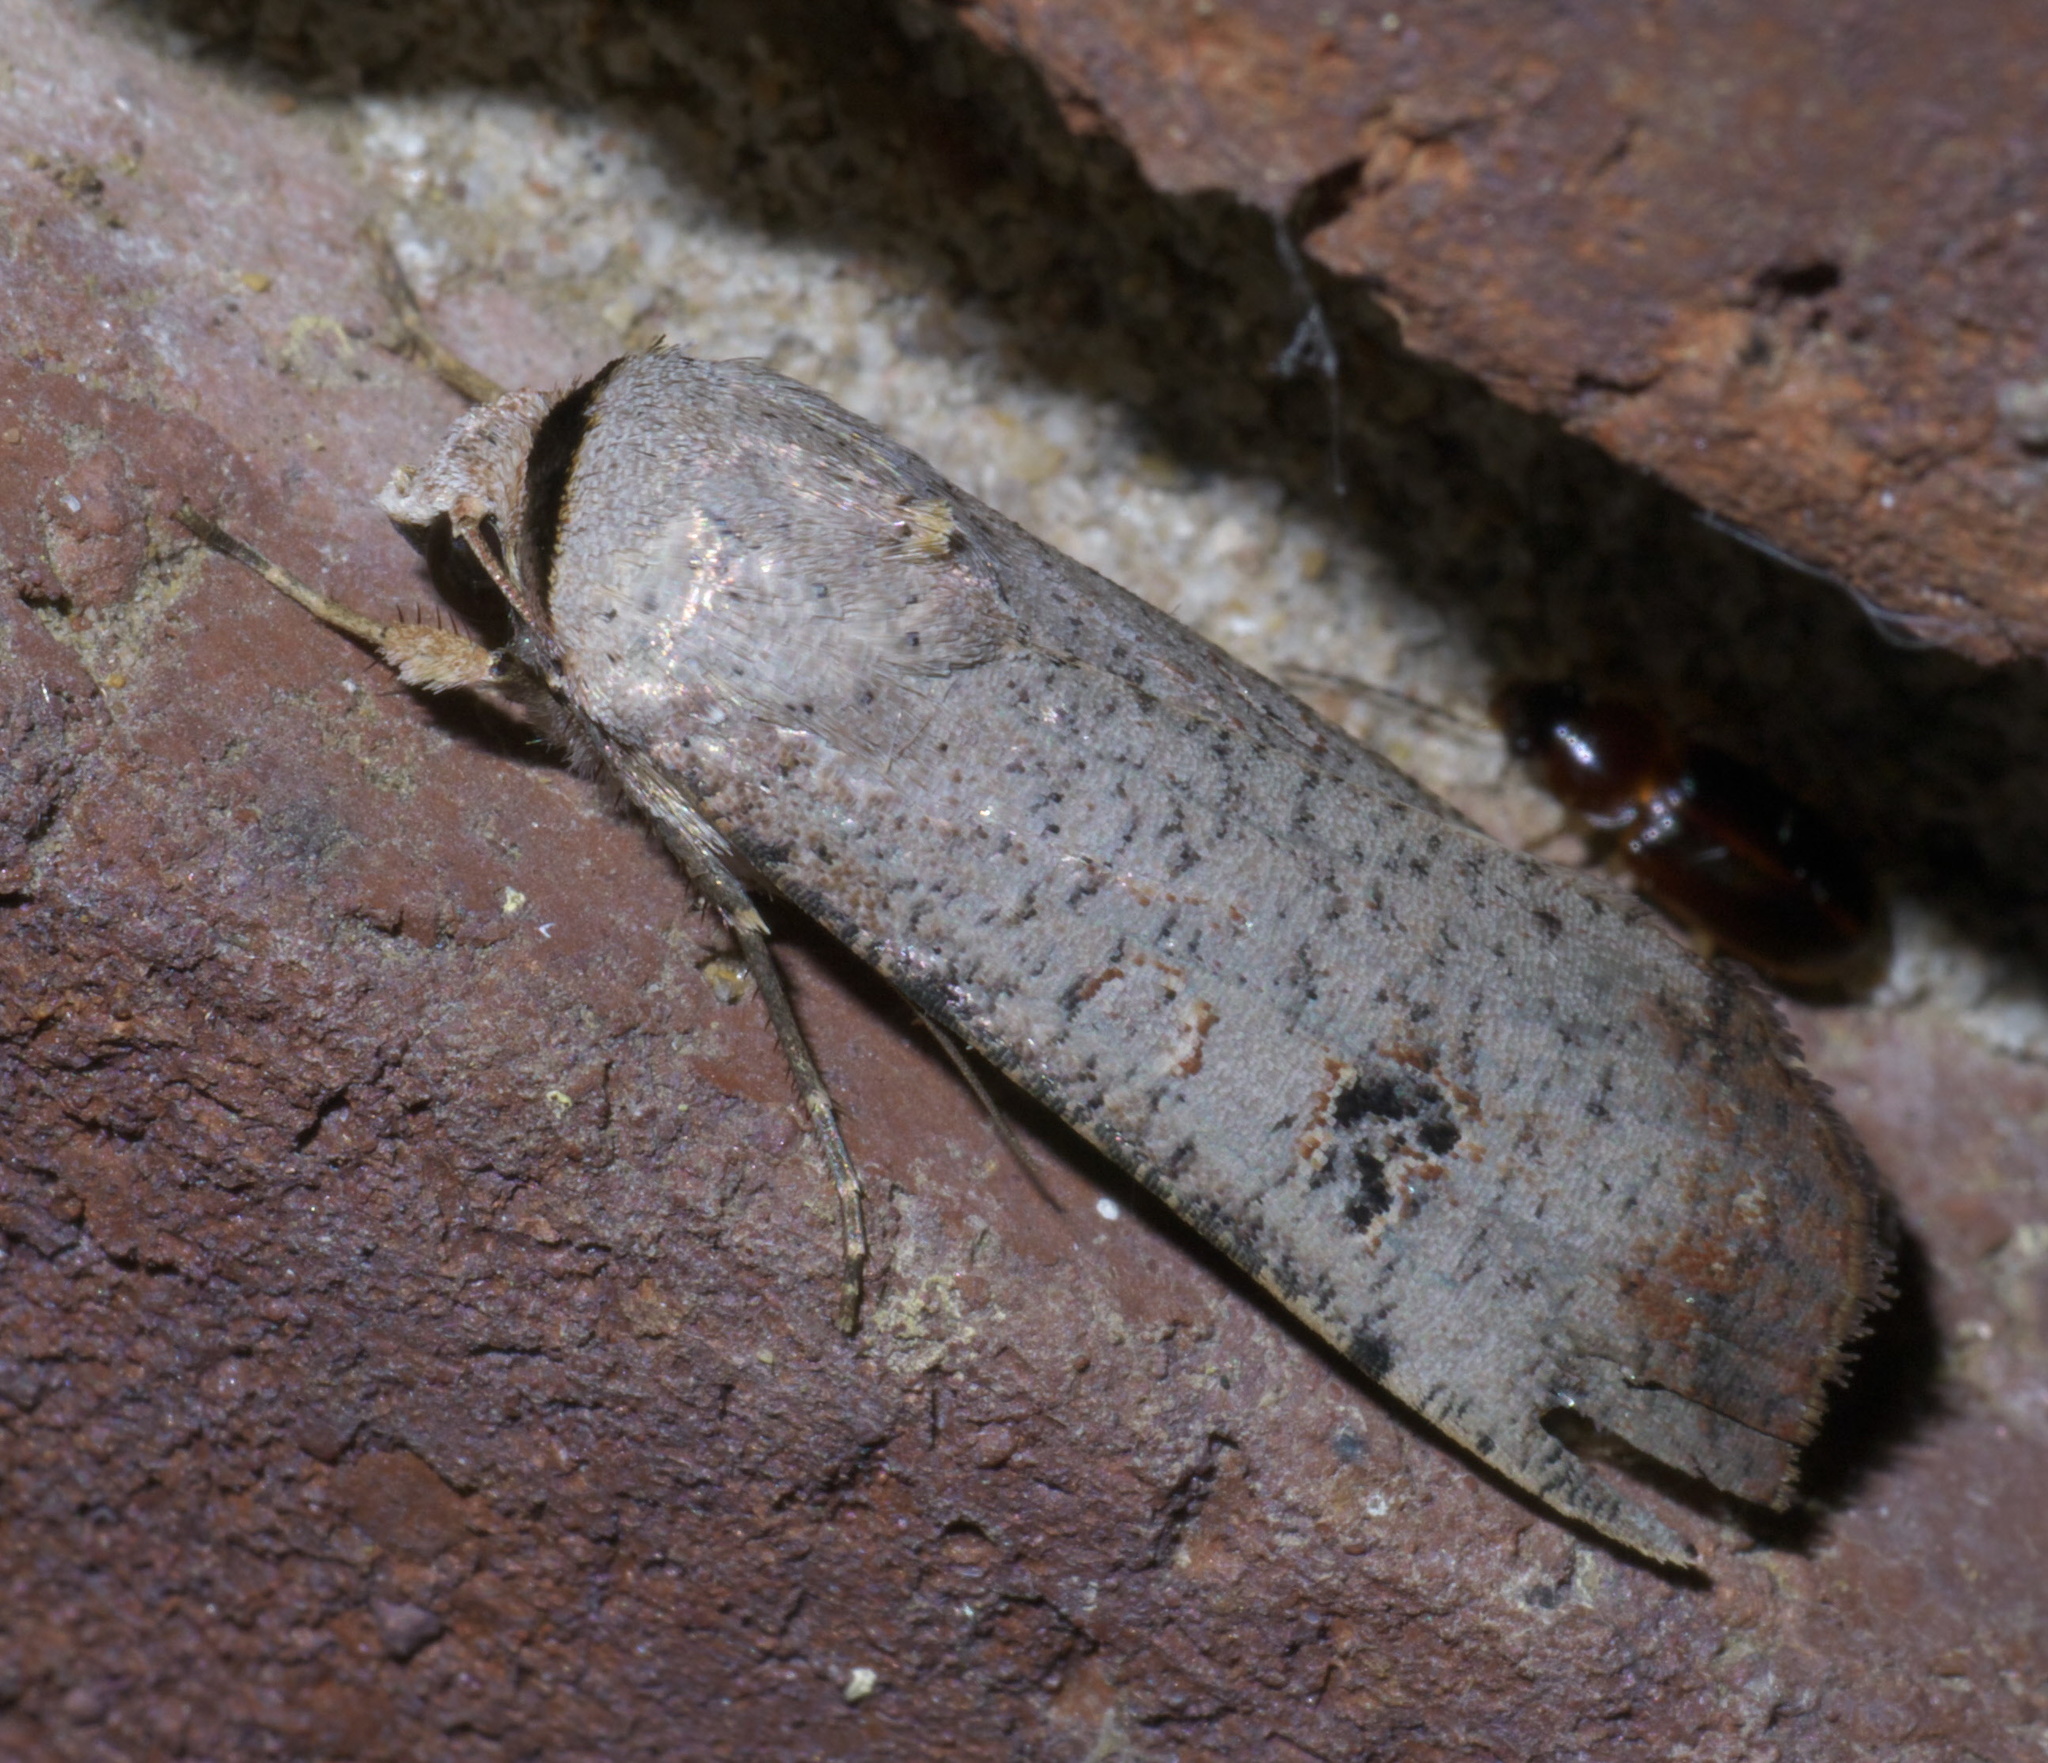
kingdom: Animalia
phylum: Arthropoda
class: Insecta
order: Lepidoptera
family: Noctuidae
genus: Anicla
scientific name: Anicla infecta
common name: Green cutworm
